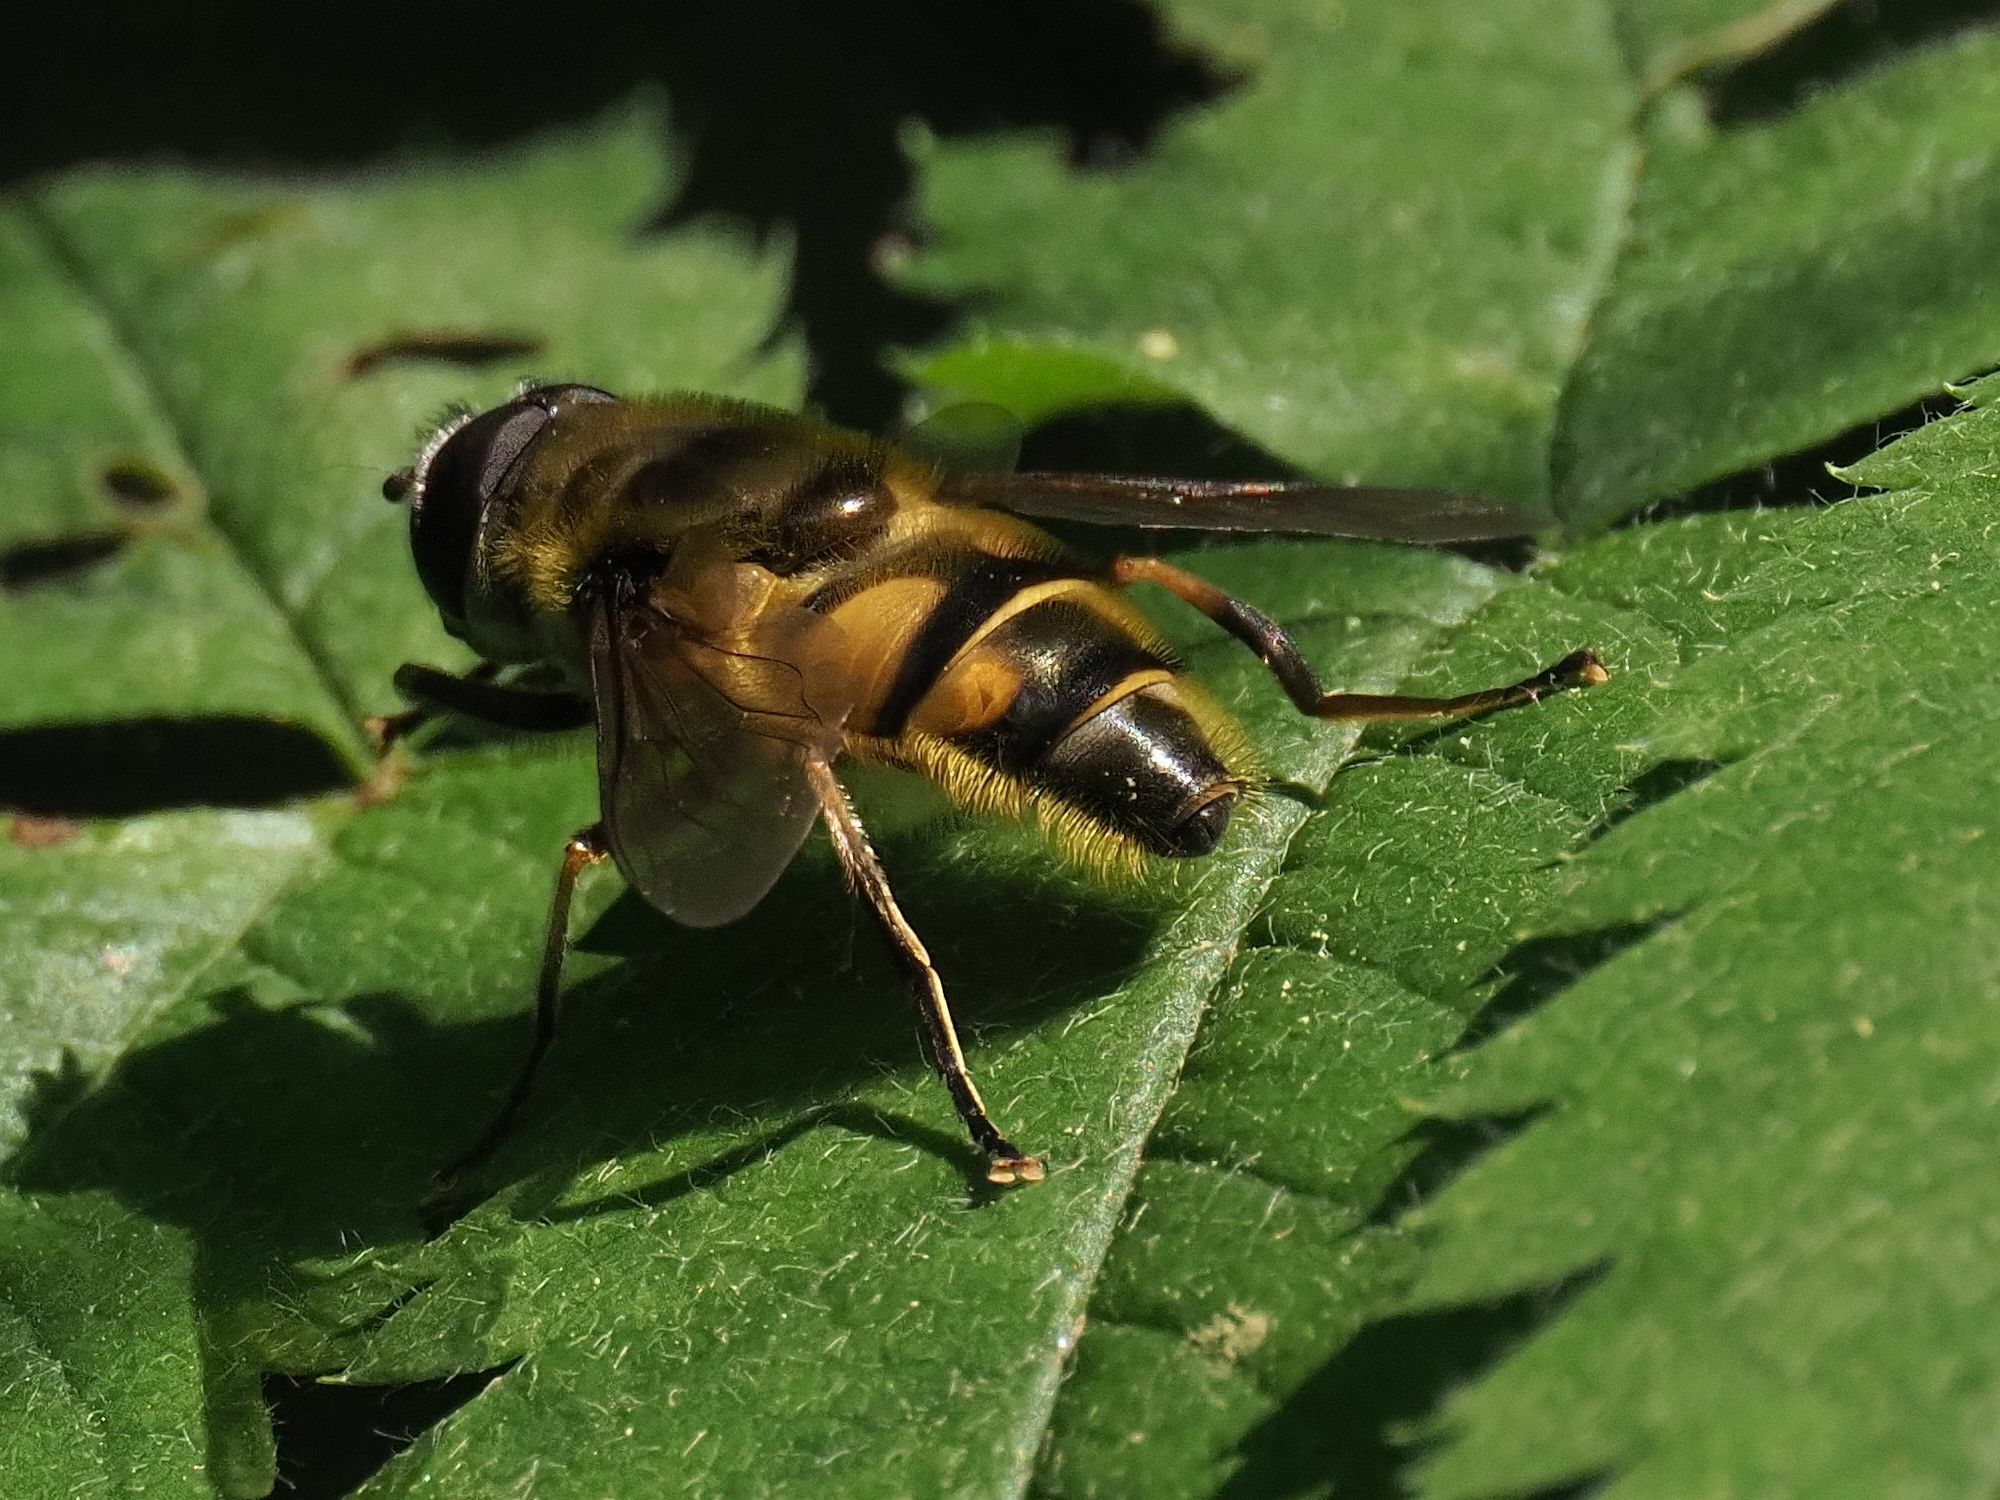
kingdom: Animalia
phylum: Arthropoda
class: Insecta
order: Diptera
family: Syrphidae
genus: Myathropa
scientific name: Myathropa florea
